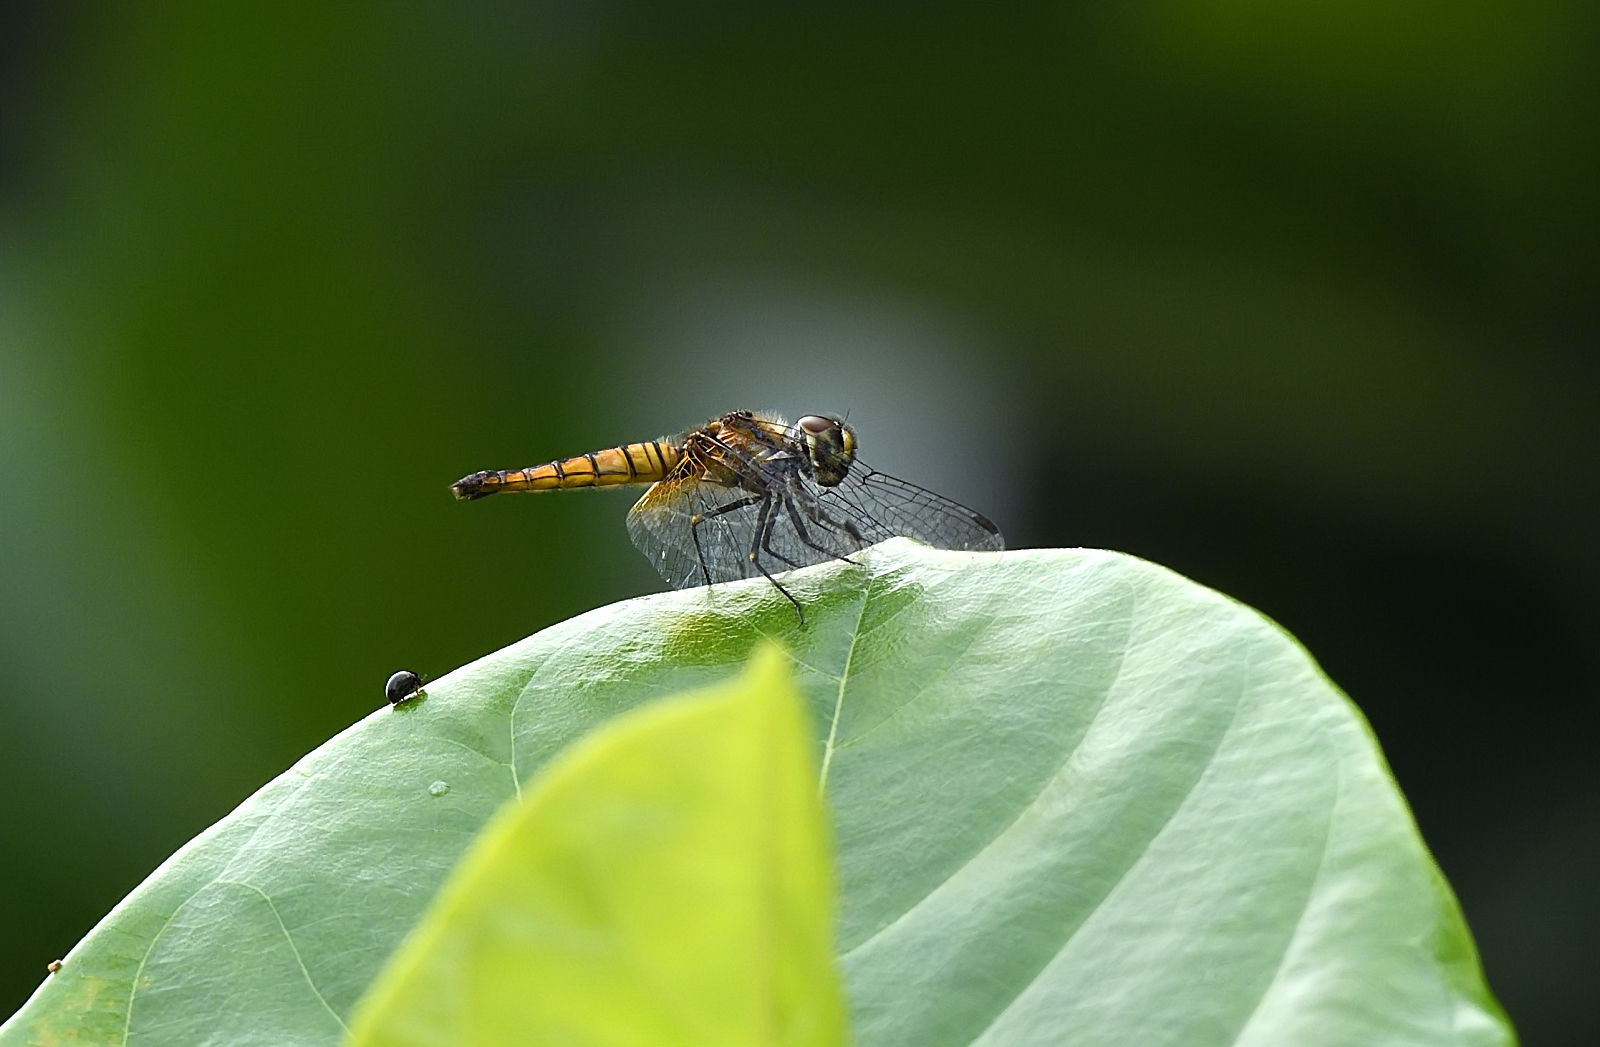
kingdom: Animalia
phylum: Arthropoda
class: Insecta
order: Odonata
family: Libellulidae
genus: Aethriamanta
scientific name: Aethriamanta brevipennis
